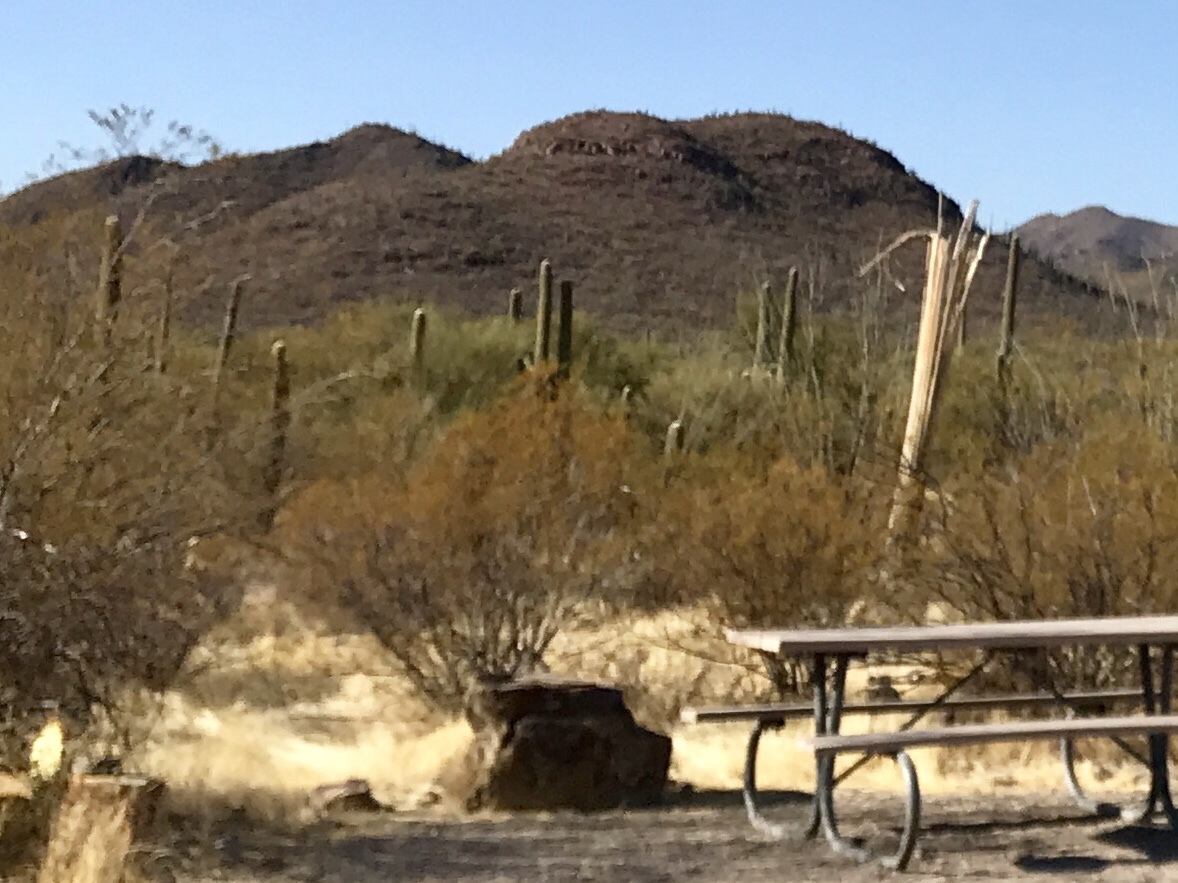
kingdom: Plantae
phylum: Tracheophyta
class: Magnoliopsida
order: Zygophyllales
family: Zygophyllaceae
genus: Larrea
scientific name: Larrea tridentata
